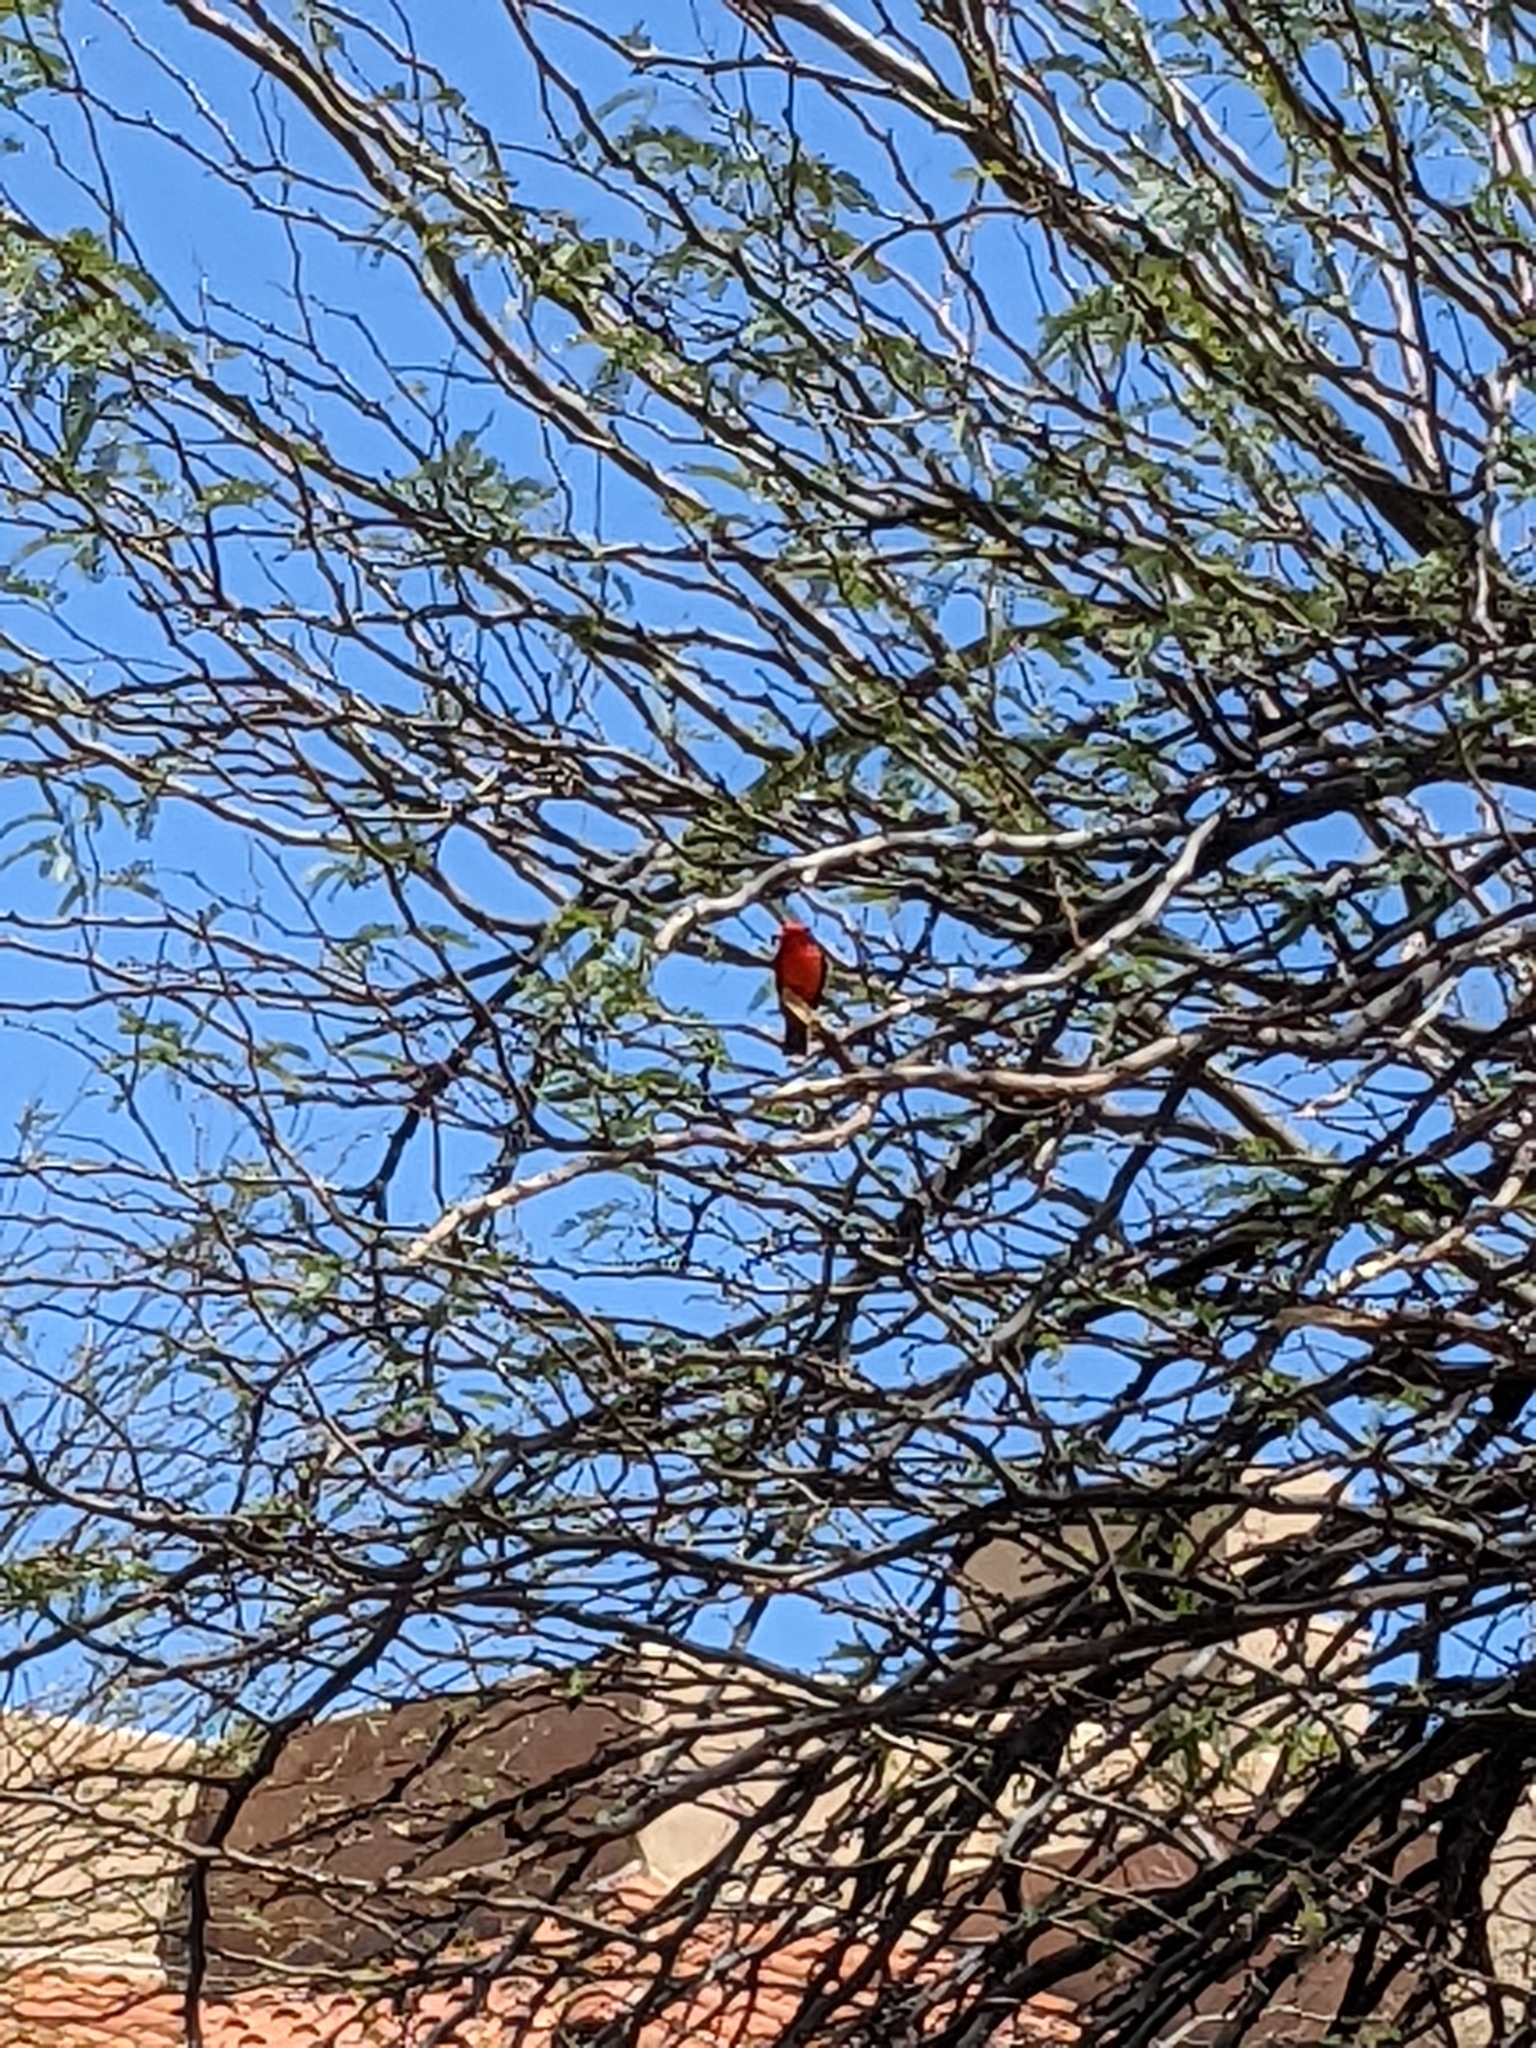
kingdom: Animalia
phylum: Chordata
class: Aves
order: Passeriformes
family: Tyrannidae
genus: Pyrocephalus
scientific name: Pyrocephalus rubinus
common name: Vermilion flycatcher
